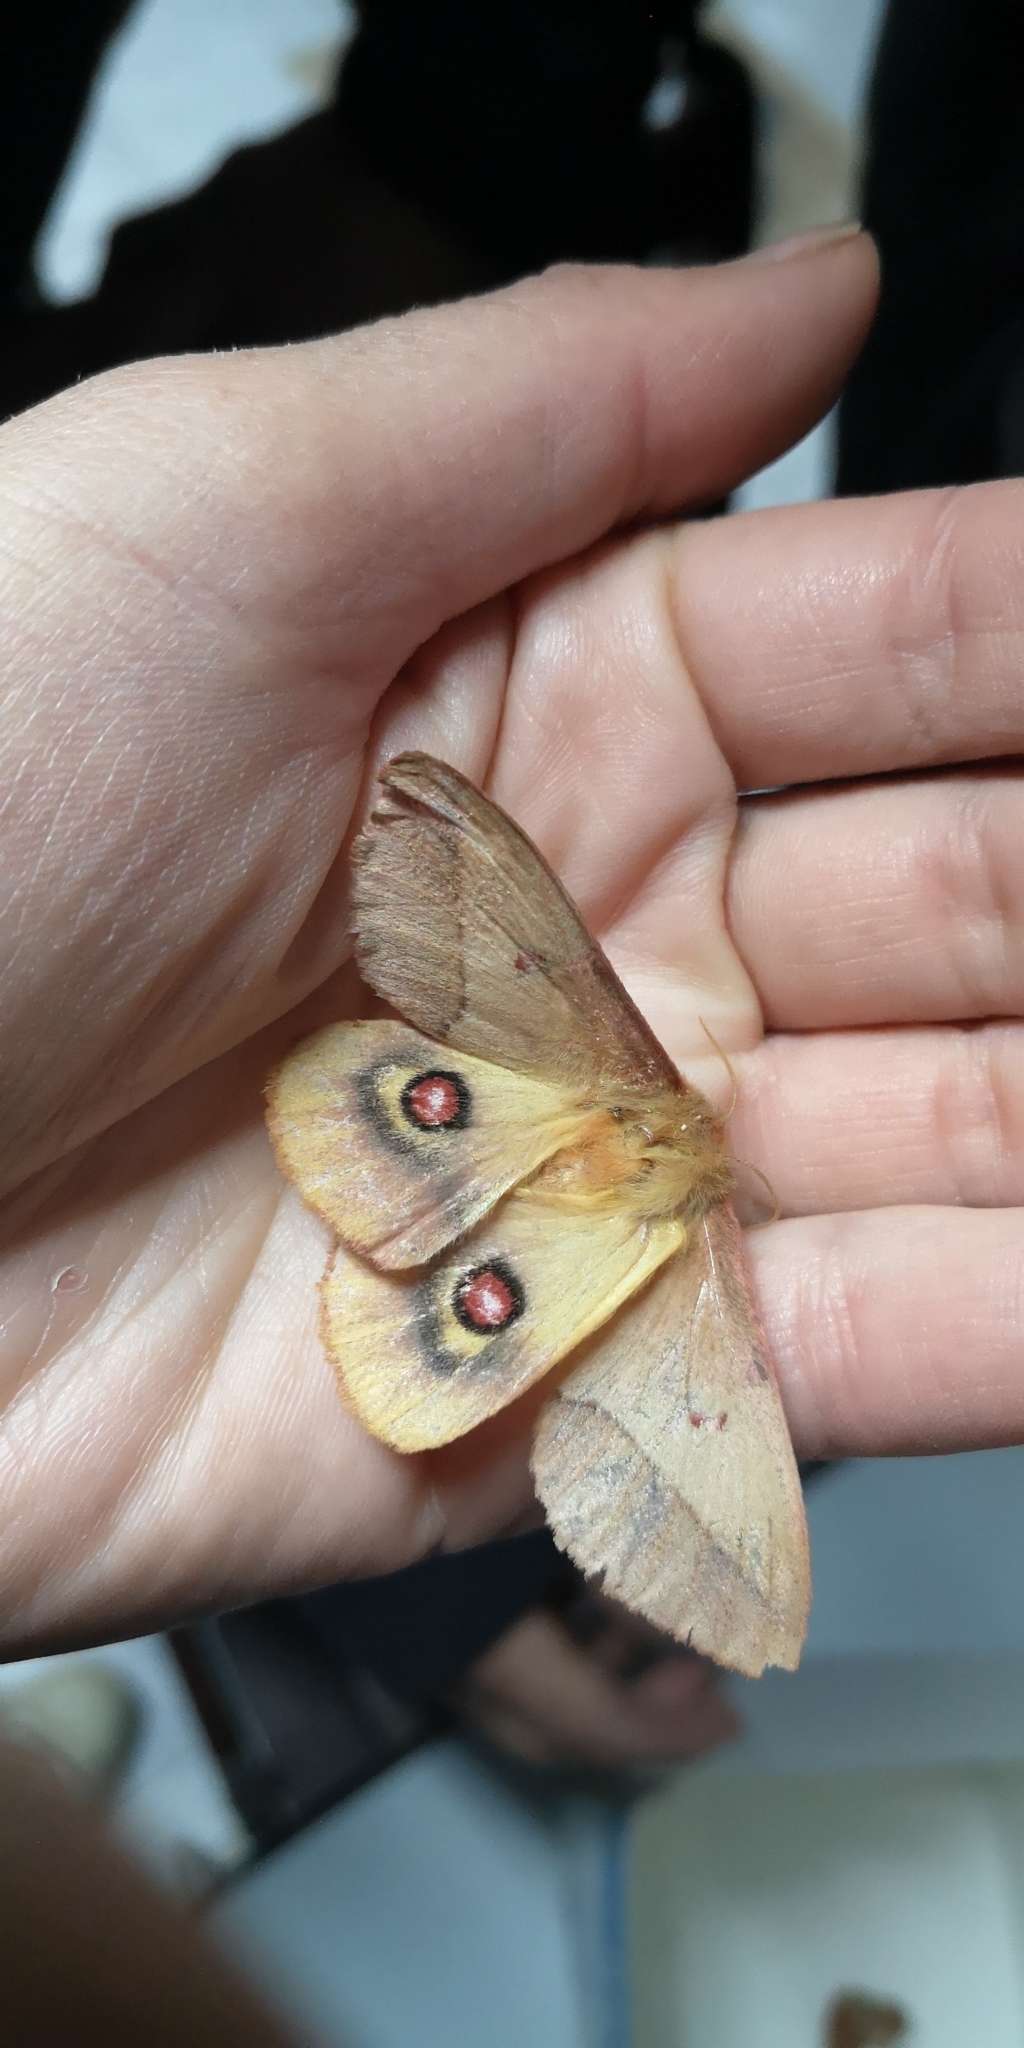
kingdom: Animalia
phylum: Arthropoda
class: Insecta
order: Lepidoptera
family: Saturniidae
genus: Adetomeris
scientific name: Adetomeris erythrops
